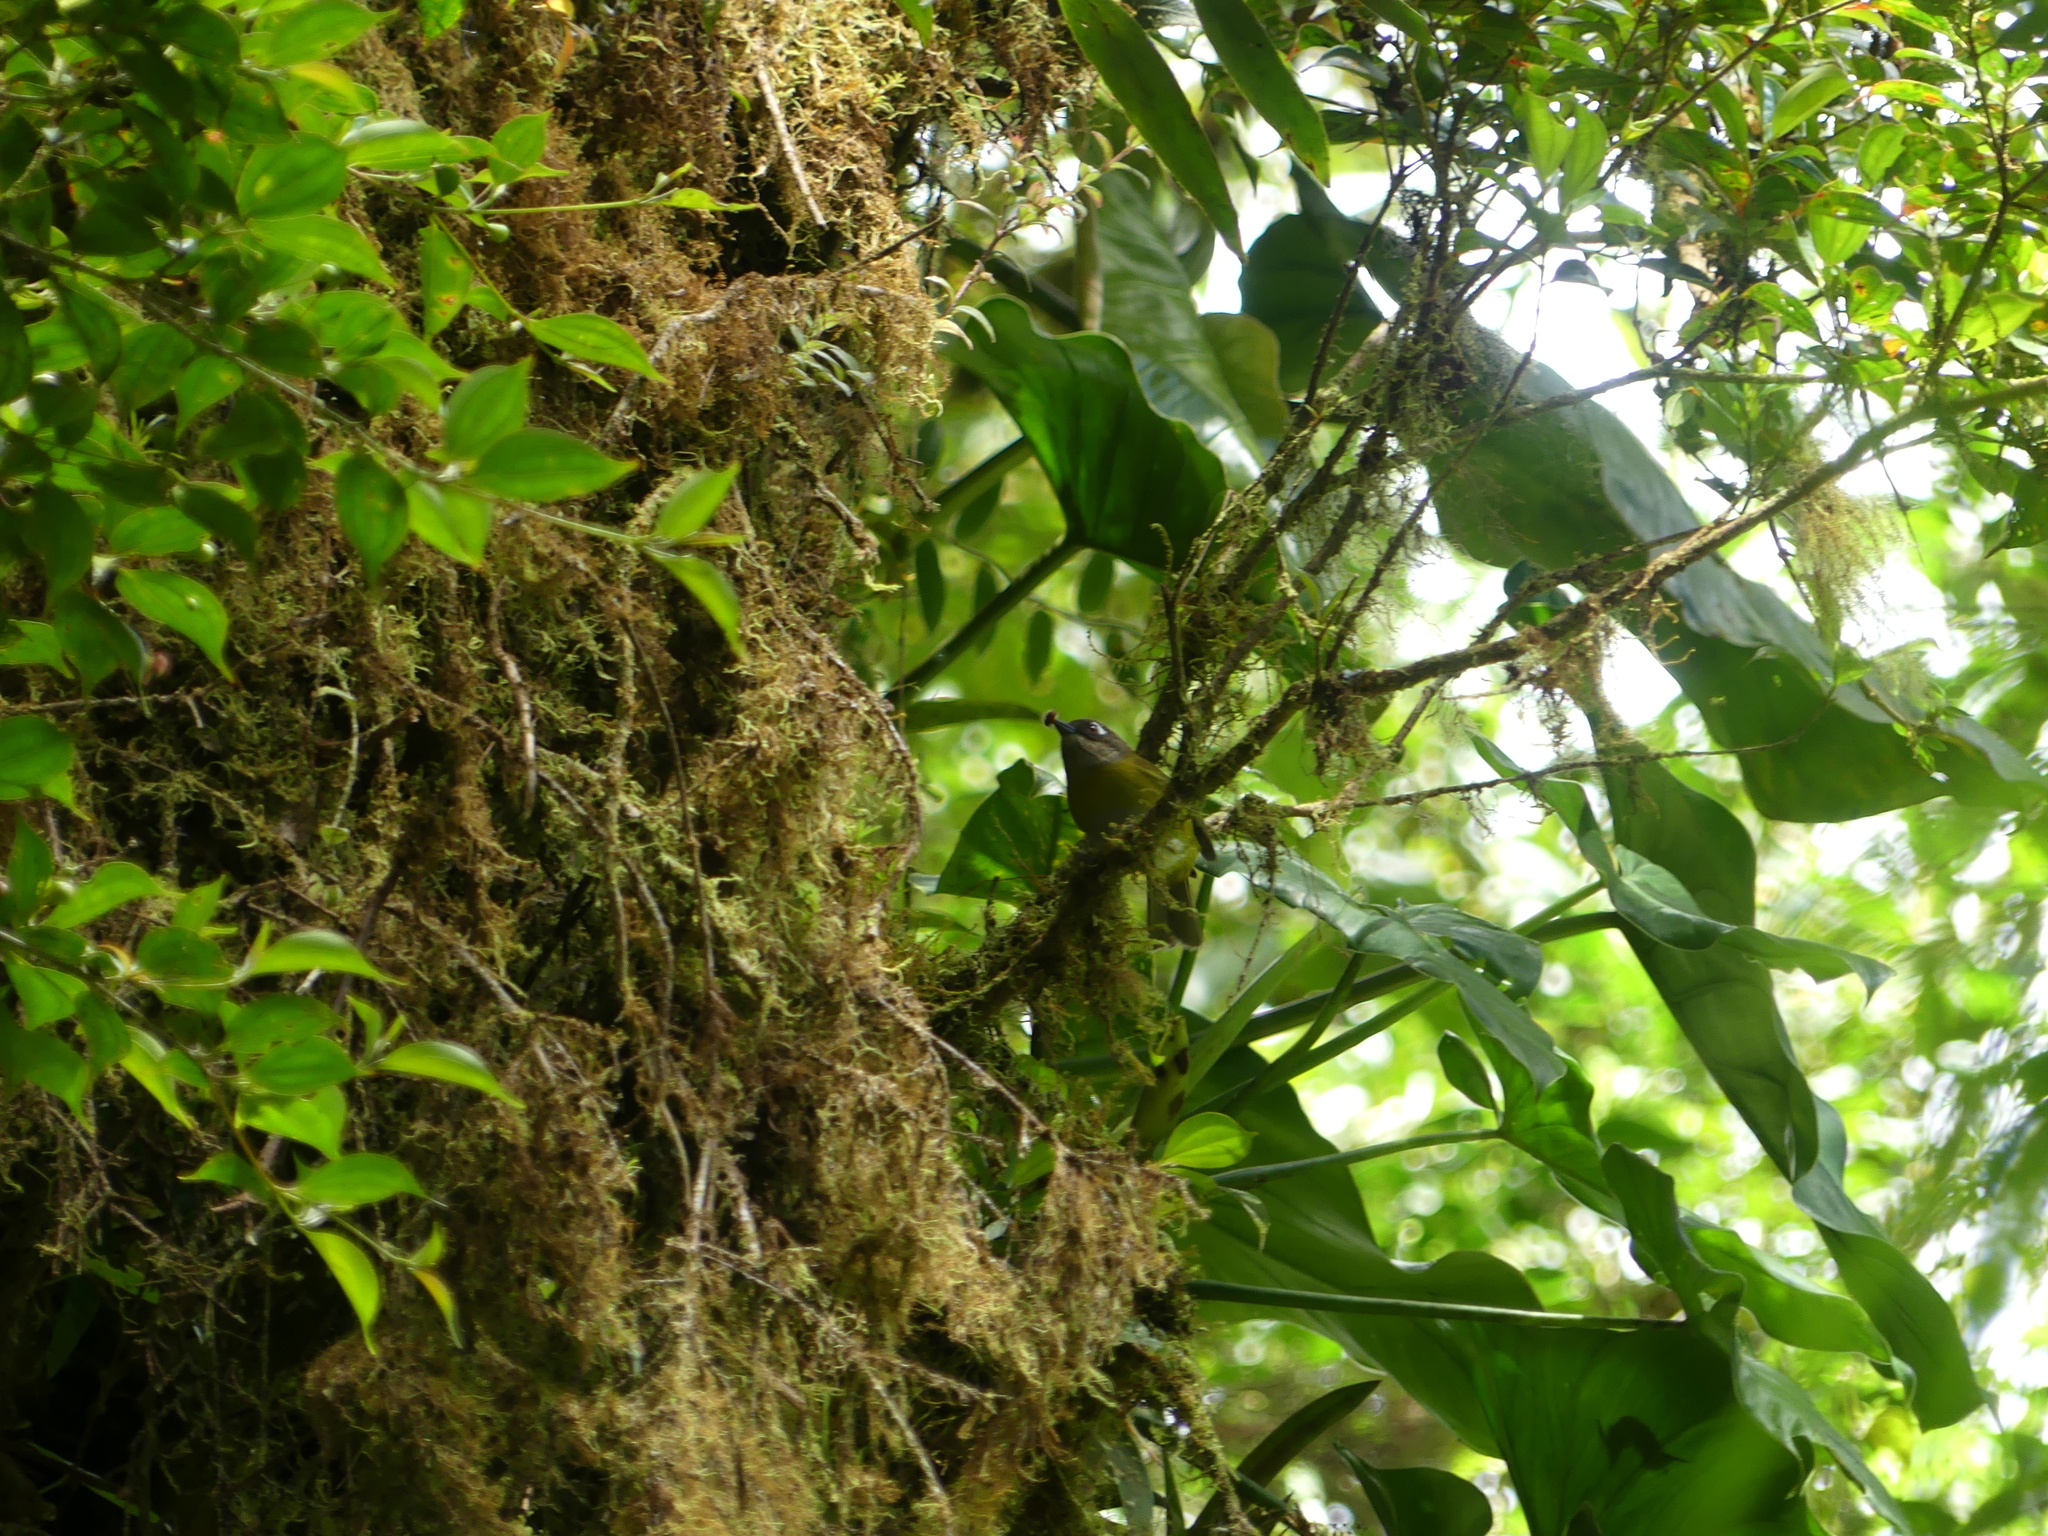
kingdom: Animalia
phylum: Chordata
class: Aves
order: Passeriformes
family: Passerellidae
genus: Chlorospingus
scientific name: Chlorospingus flavopectus
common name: Common chlorospingus
